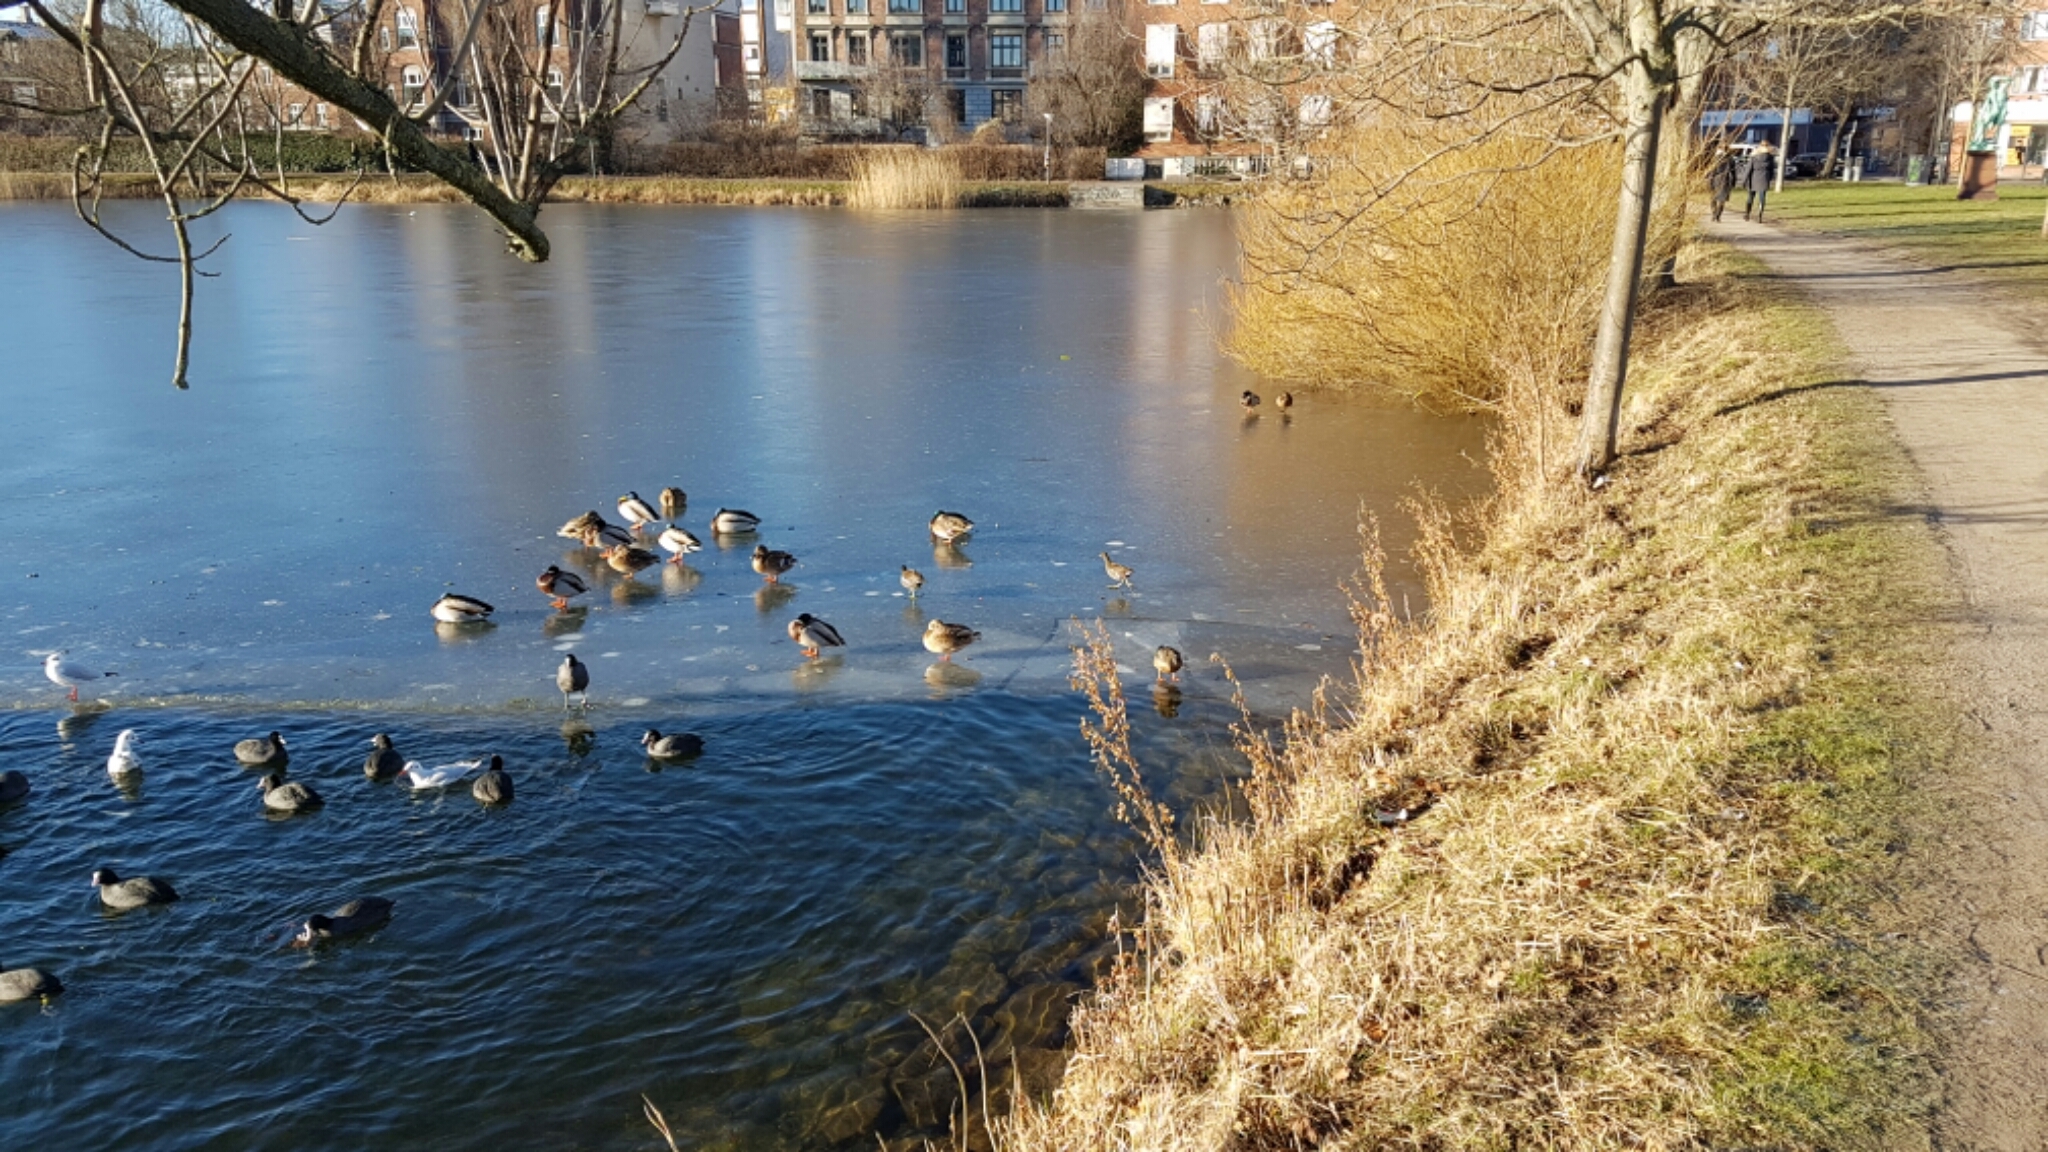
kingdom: Animalia
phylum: Chordata
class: Aves
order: Anseriformes
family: Anatidae
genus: Anas
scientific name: Anas platyrhynchos
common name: Mallard
